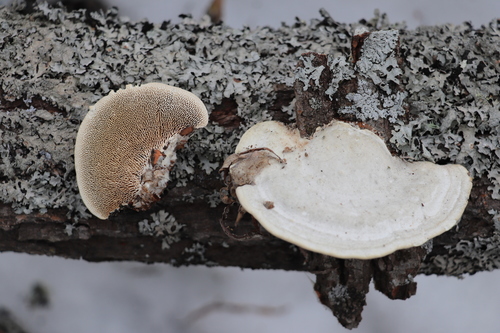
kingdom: Fungi
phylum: Basidiomycota
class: Agaricomycetes
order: Polyporales
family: Polyporaceae
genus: Trametes
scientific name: Trametes gibbosa
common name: Lumpy bracket
